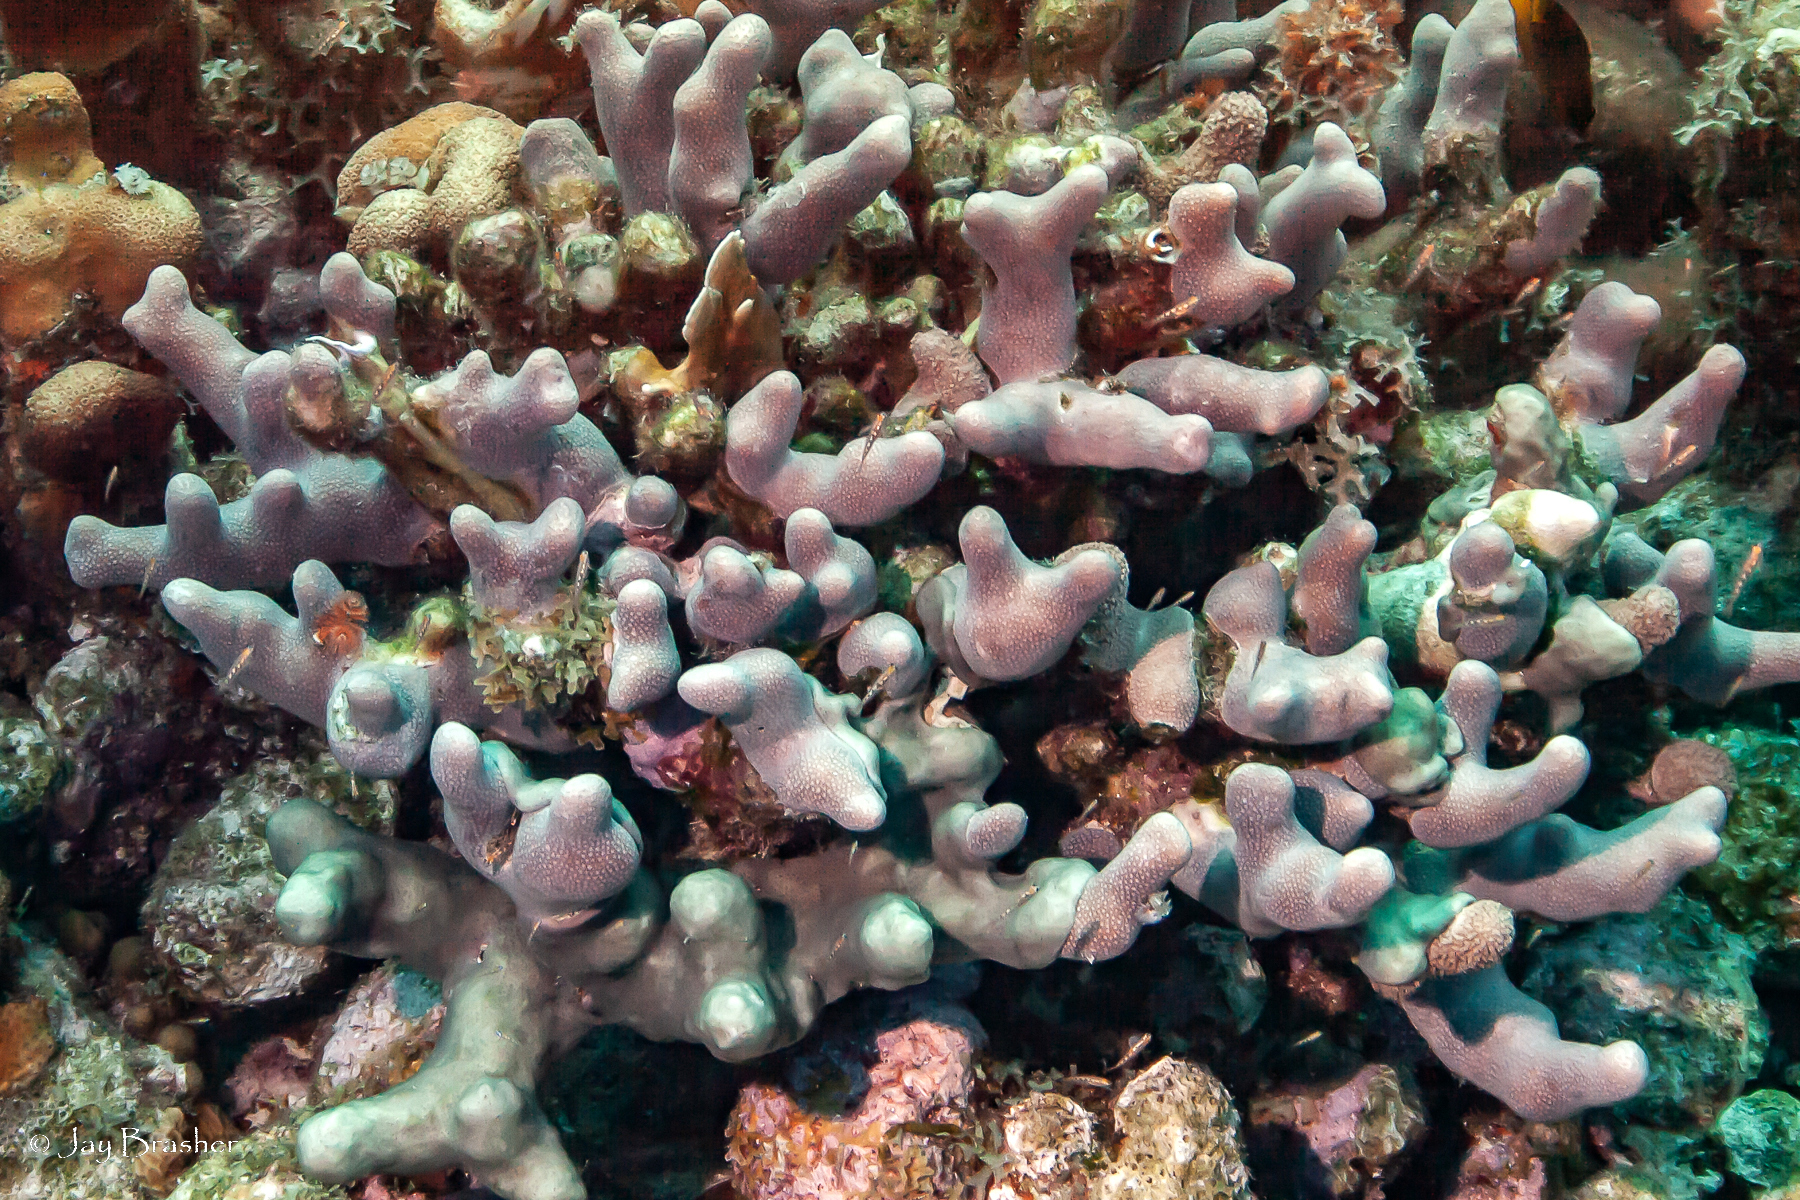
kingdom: Animalia
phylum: Cnidaria
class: Anthozoa
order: Scleractinia
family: Poritidae
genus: Porites
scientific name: Porites porites
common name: Finger coral
